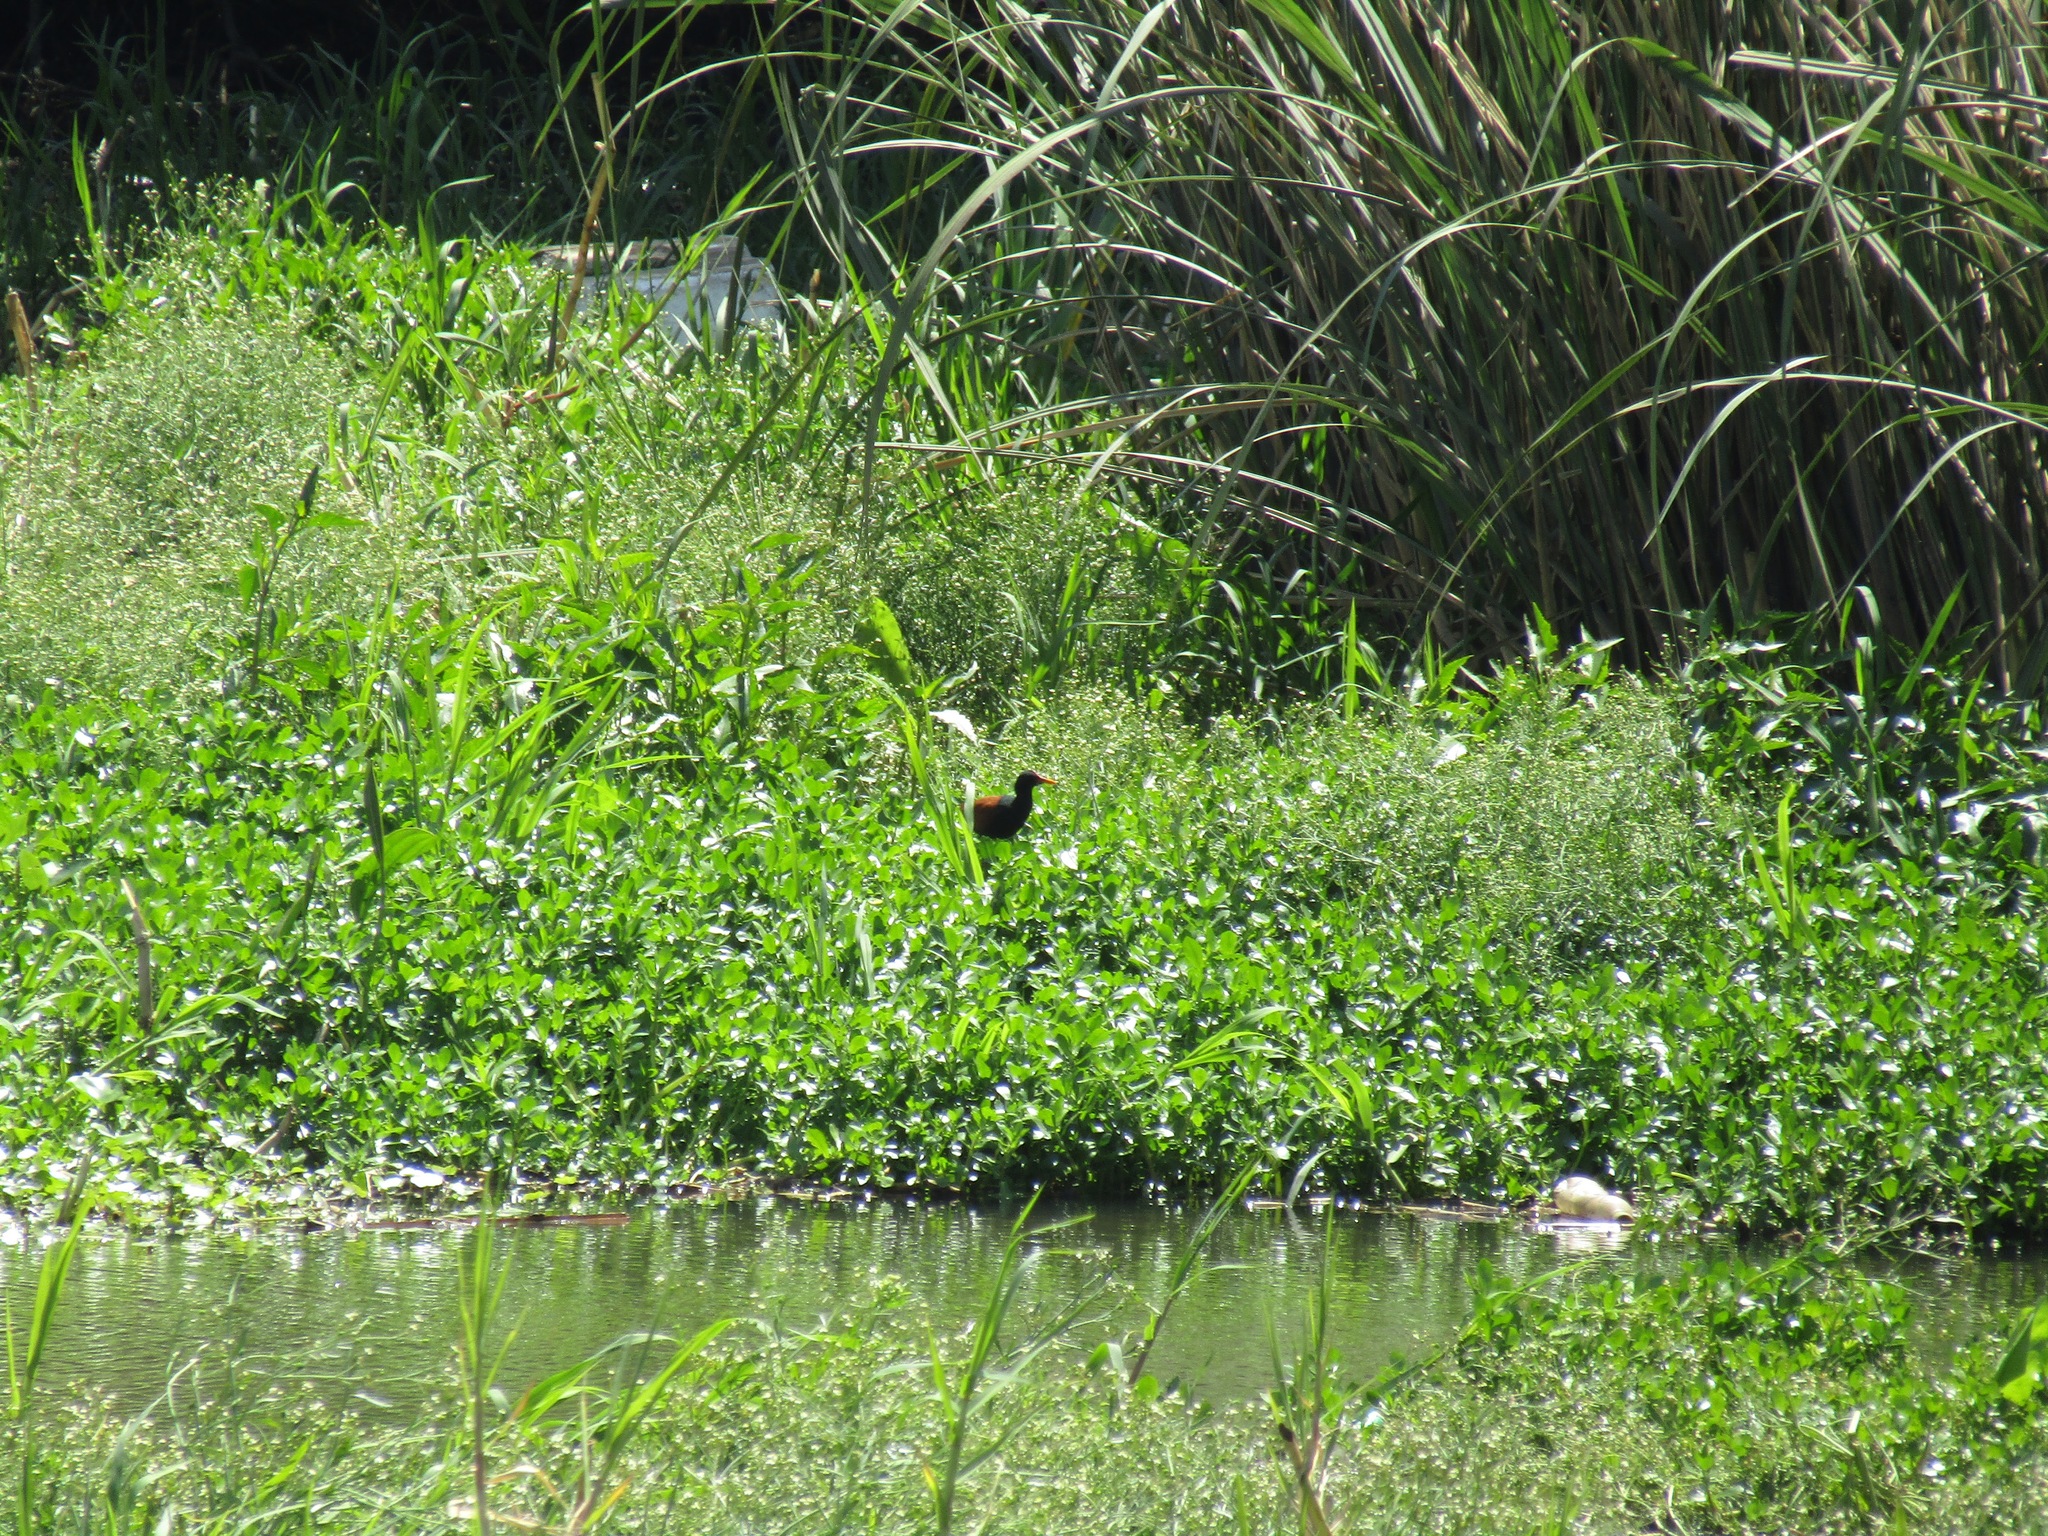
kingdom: Animalia
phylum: Chordata
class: Aves
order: Charadriiformes
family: Jacanidae
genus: Jacana
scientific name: Jacana jacana
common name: Wattled jacana
